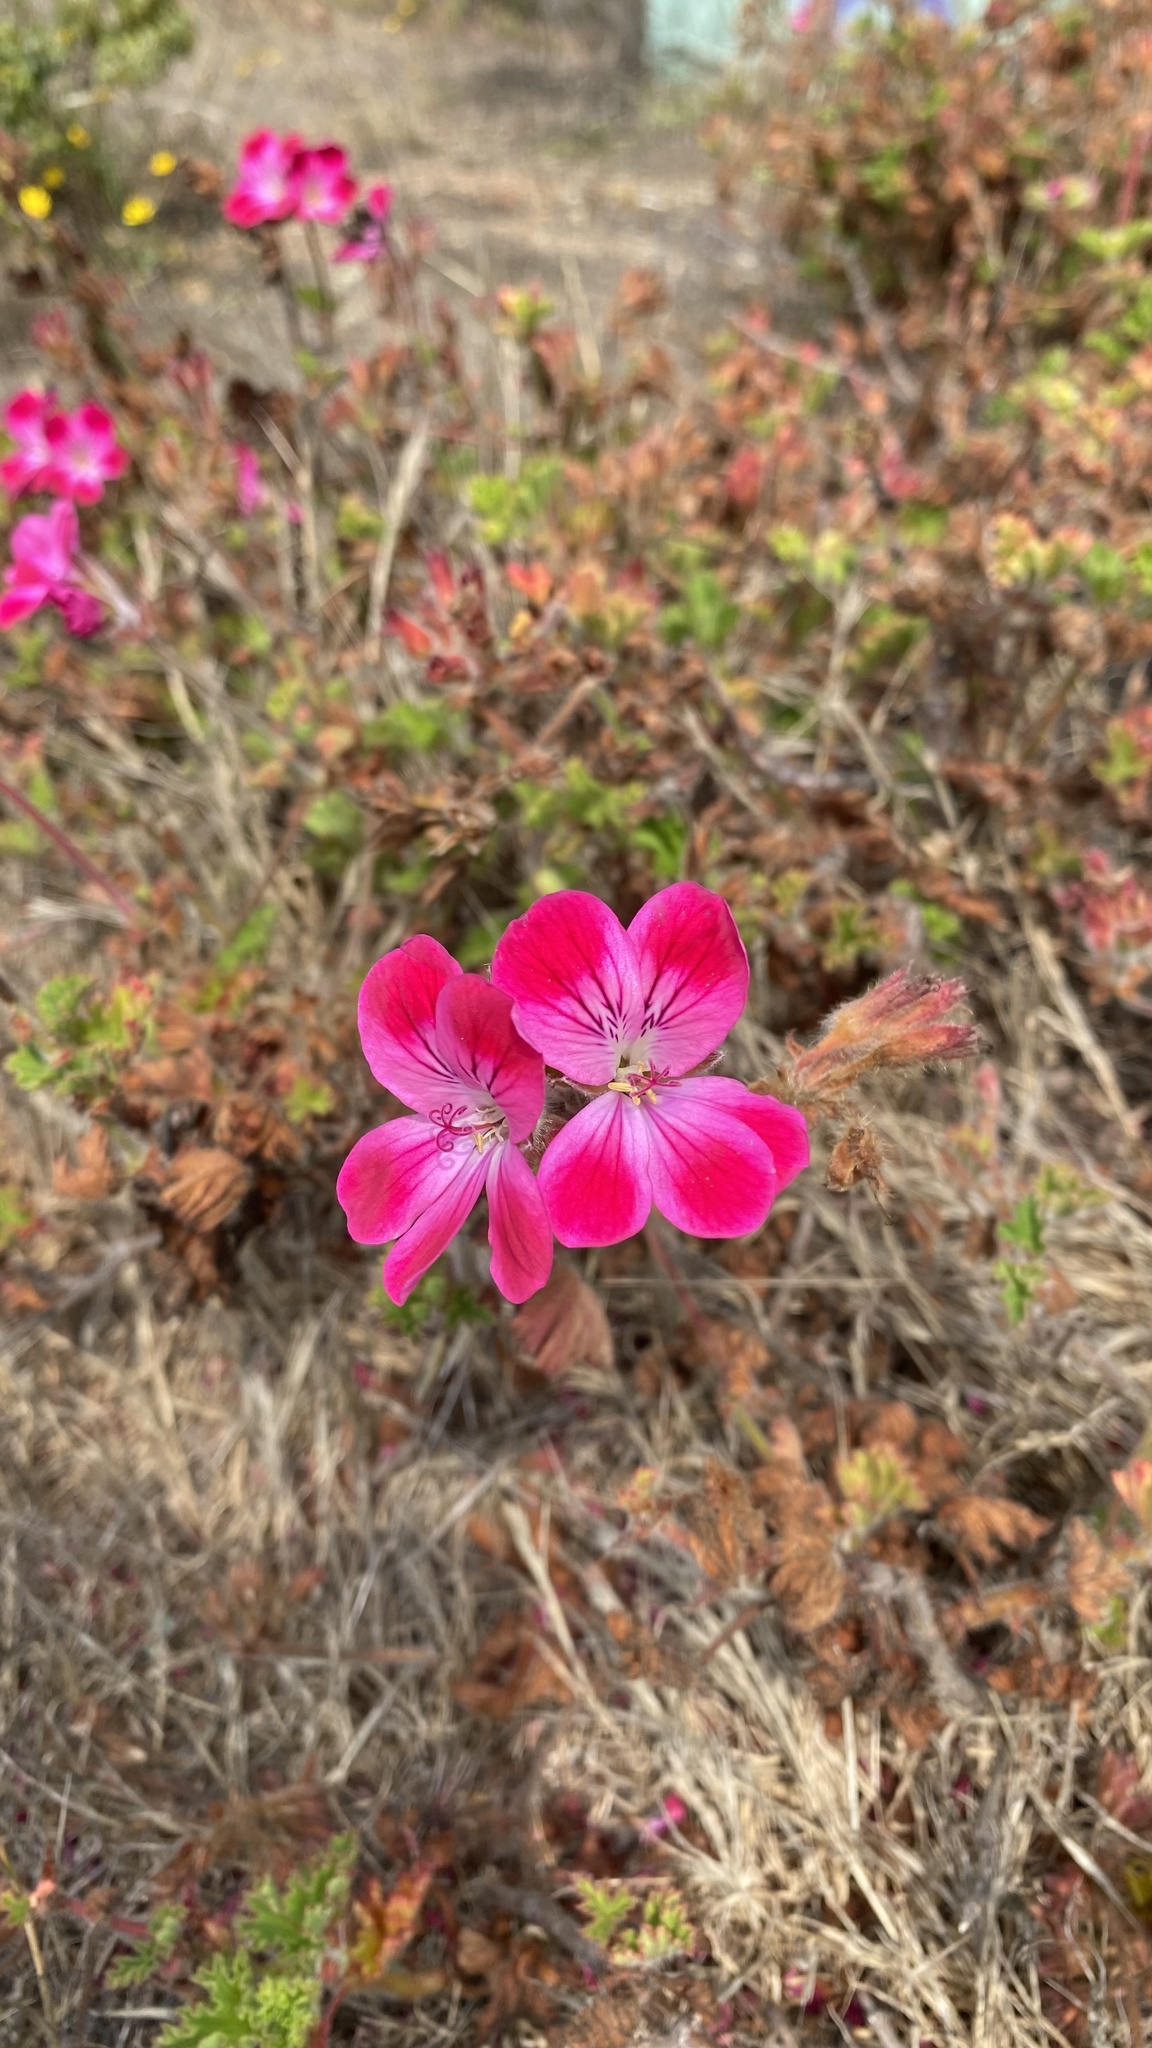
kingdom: Plantae
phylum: Tracheophyta
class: Magnoliopsida
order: Geraniales
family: Geraniaceae
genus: Pelargonium
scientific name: Pelargonium domesticum
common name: Regal pelargonium
